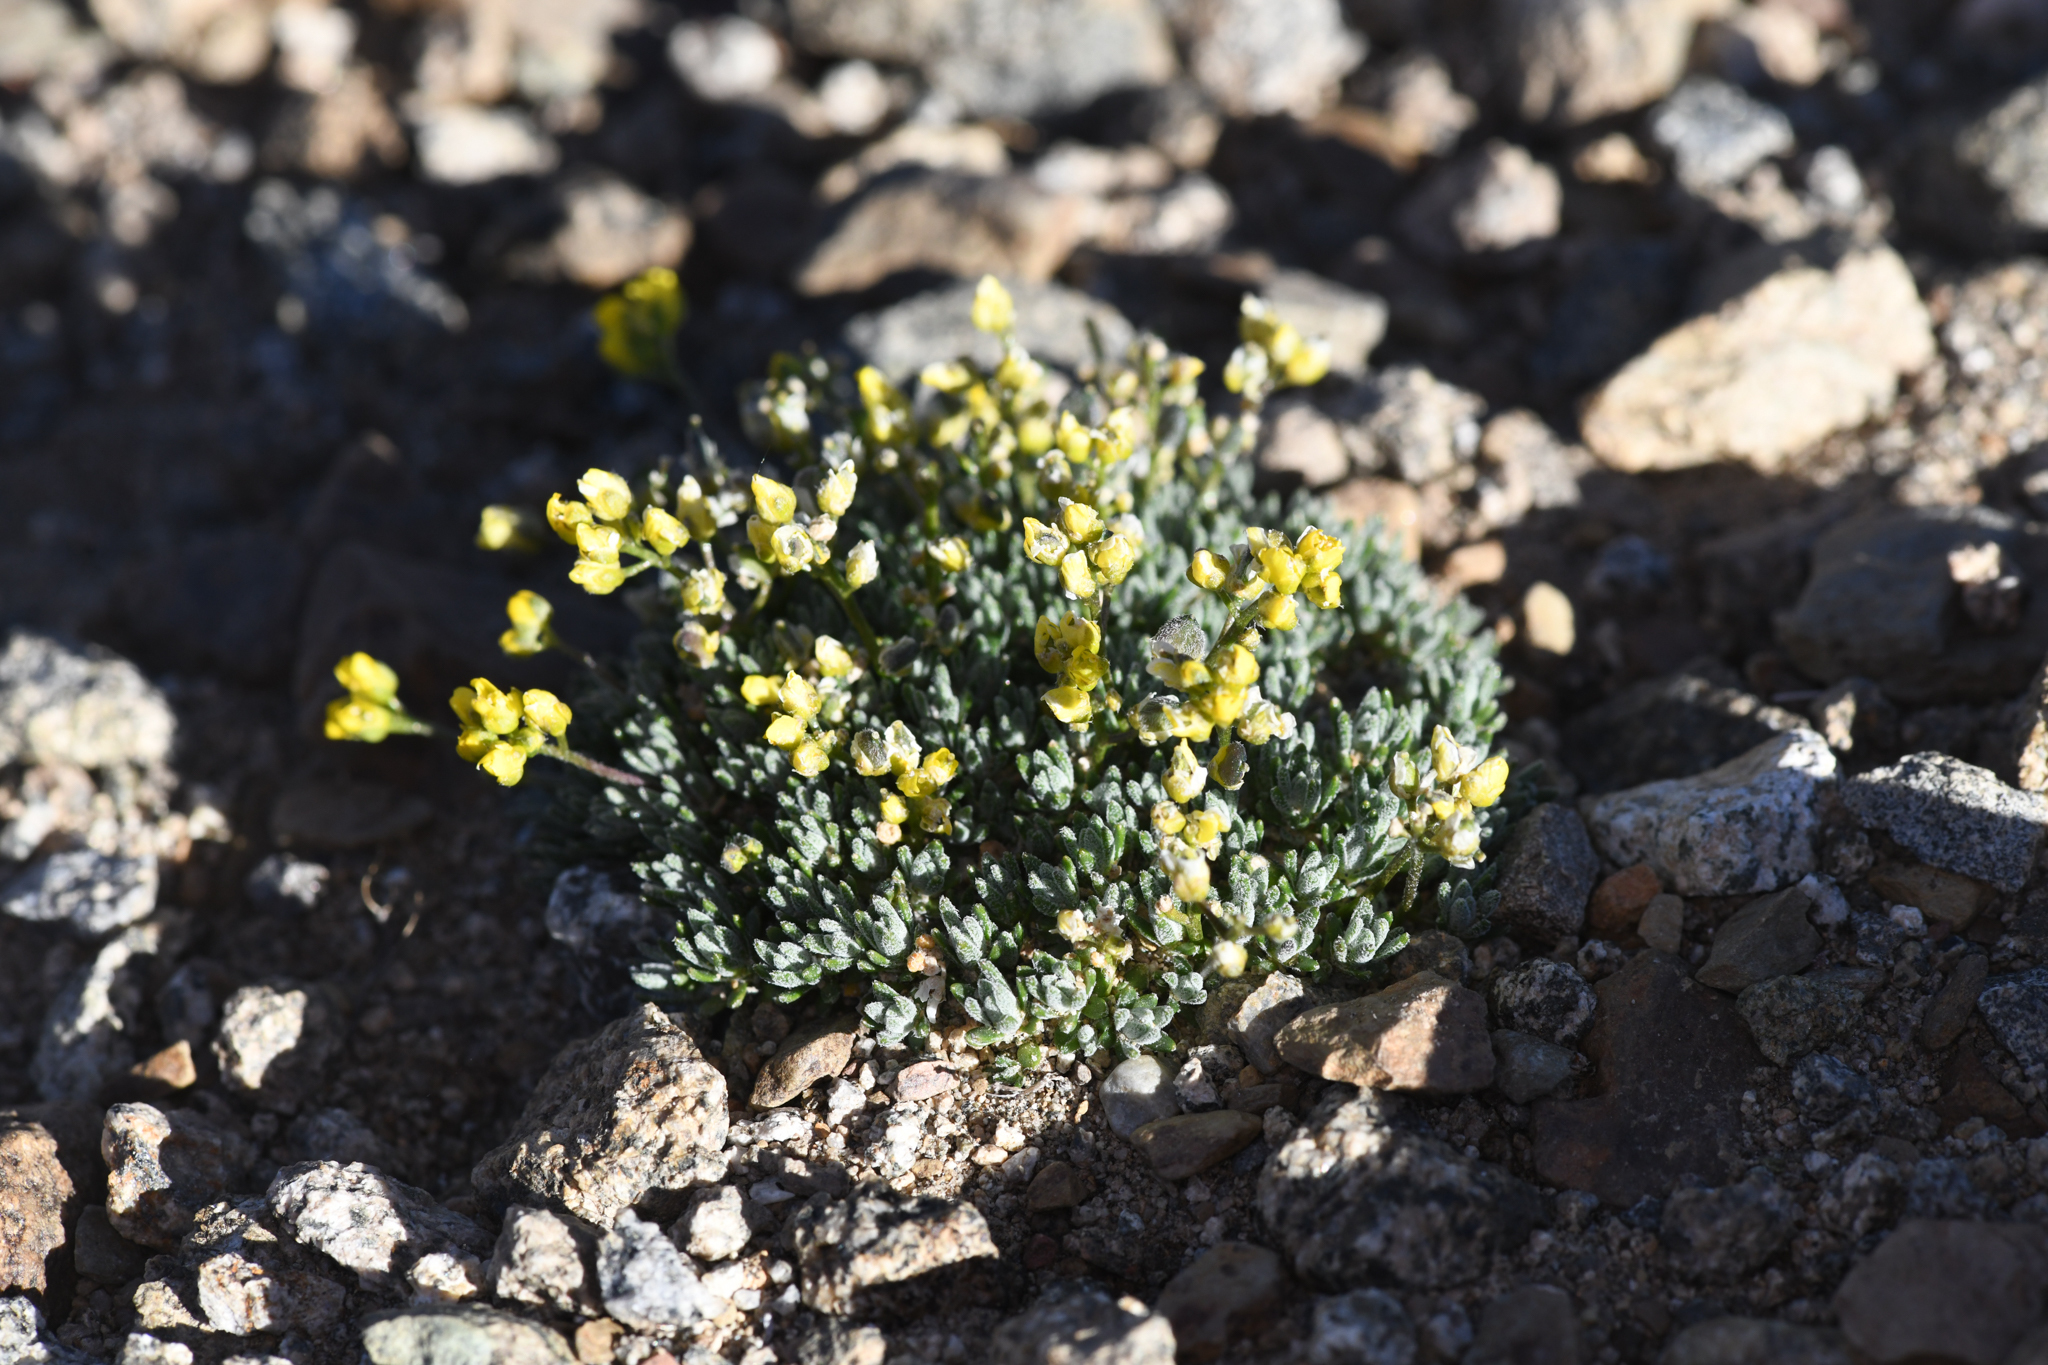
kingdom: Plantae
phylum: Tracheophyta
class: Magnoliopsida
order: Brassicales
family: Brassicaceae
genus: Draba
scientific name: Draba oligosperma
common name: Few-seed draba
